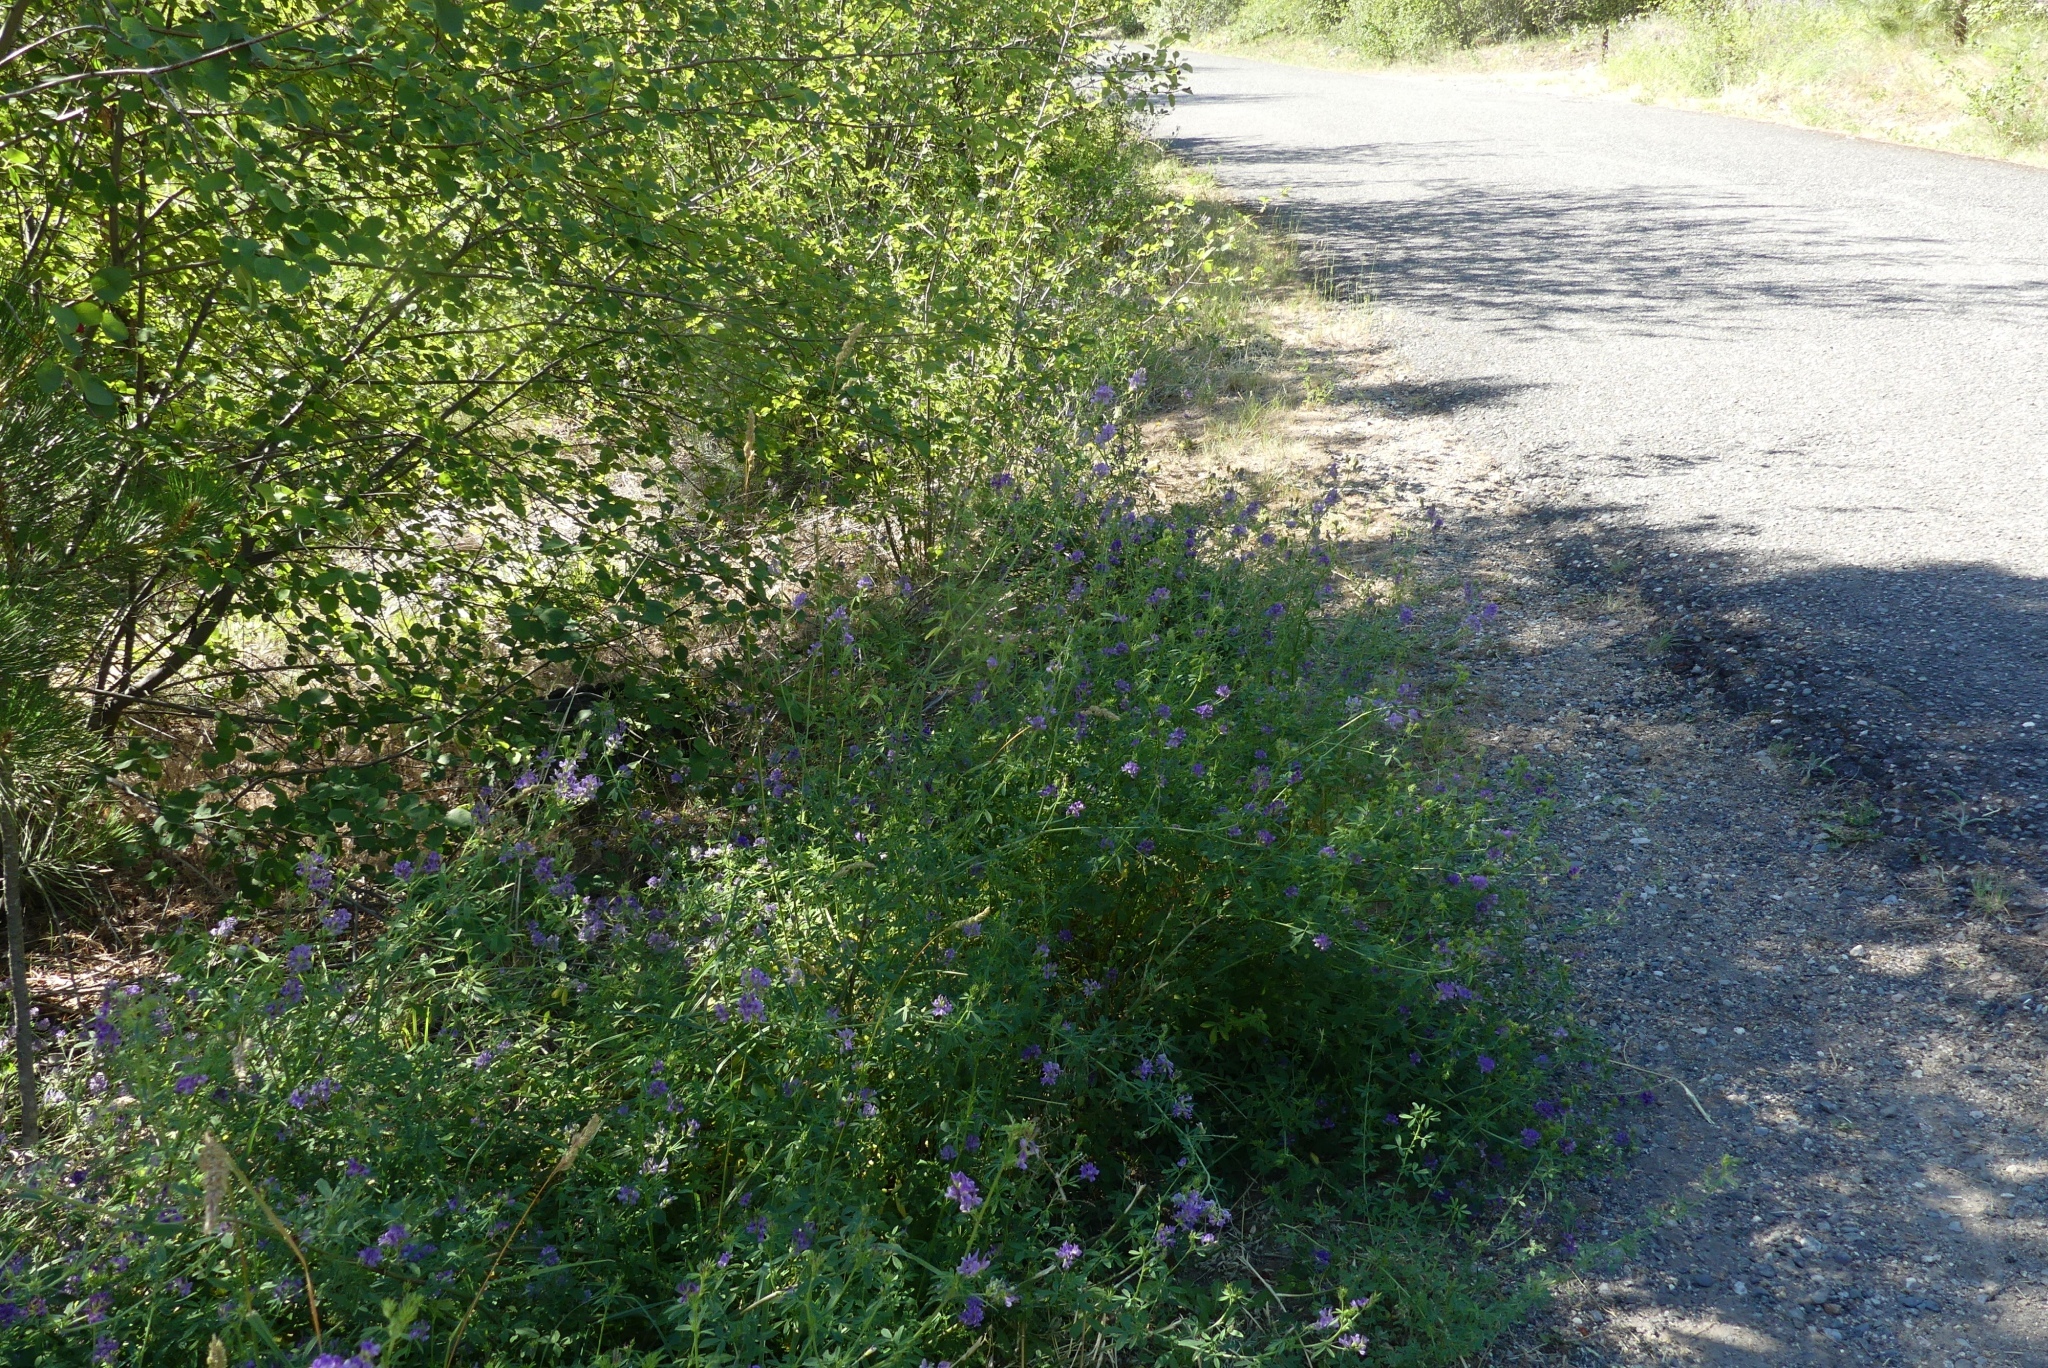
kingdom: Plantae
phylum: Tracheophyta
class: Magnoliopsida
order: Fabales
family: Fabaceae
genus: Medicago
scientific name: Medicago sativa
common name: Alfalfa
